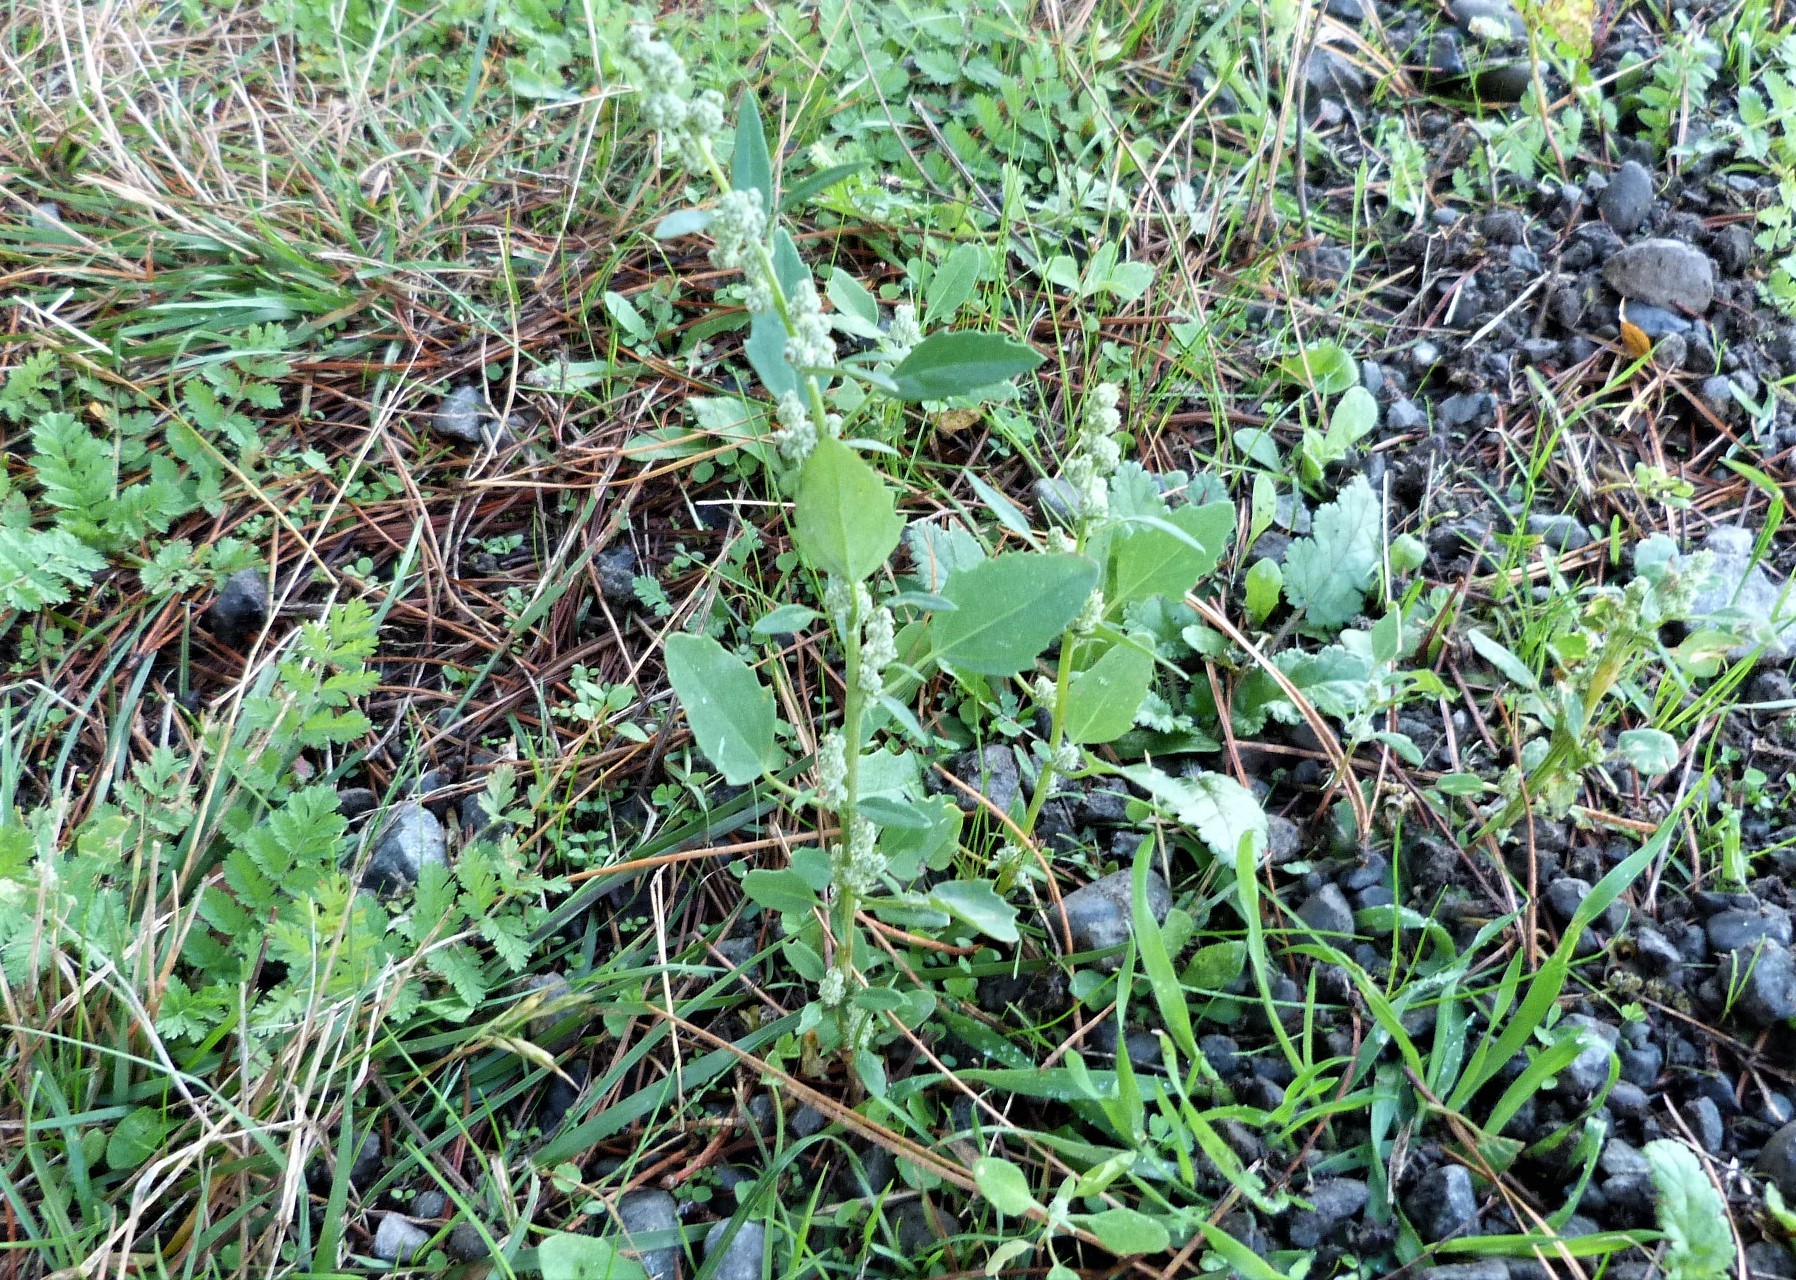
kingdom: Plantae
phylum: Tracheophyta
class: Magnoliopsida
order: Caryophyllales
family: Amaranthaceae
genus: Chenopodium
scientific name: Chenopodium album
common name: Fat-hen
